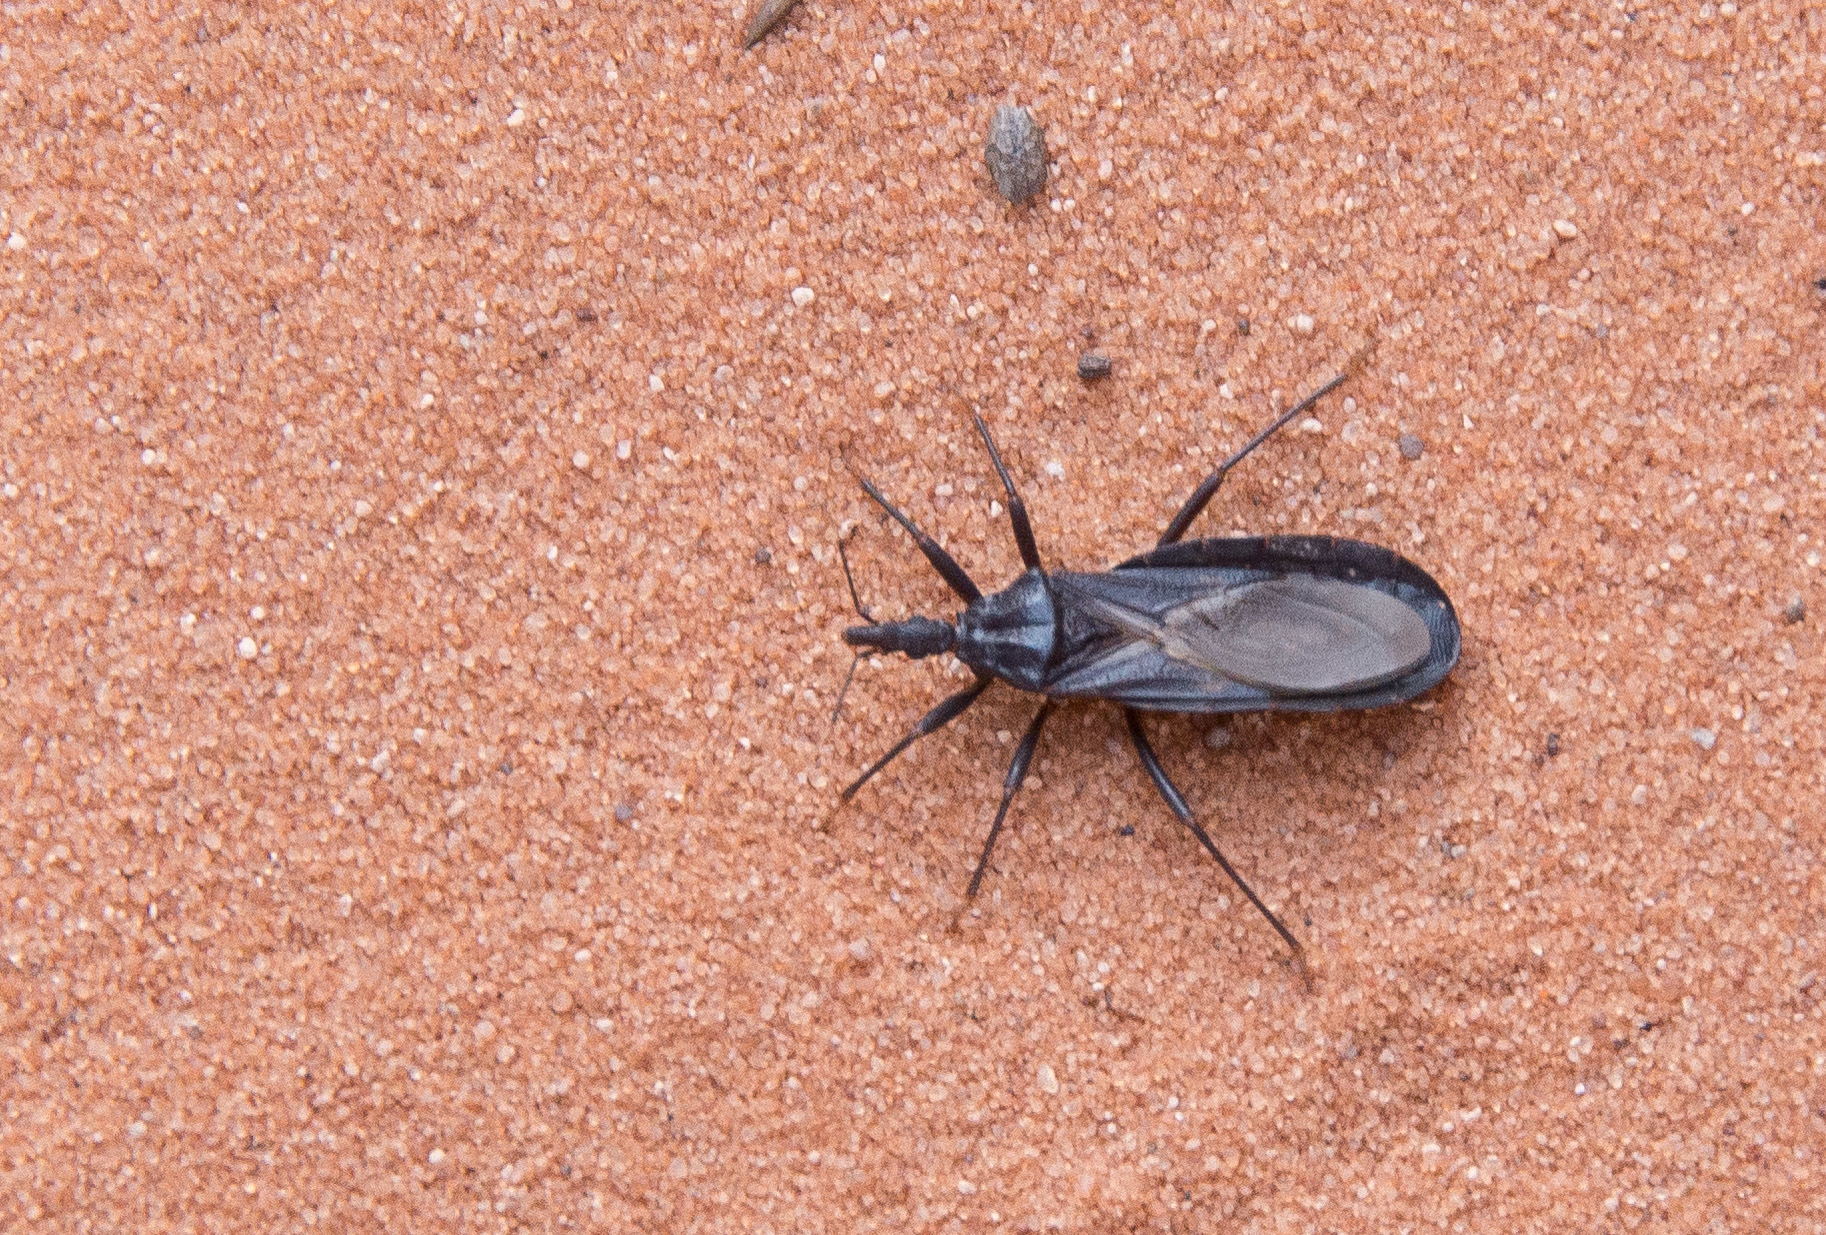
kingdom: Animalia
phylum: Arthropoda
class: Insecta
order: Hemiptera
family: Reduviidae
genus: Triatoma
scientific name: Triatoma protracta
